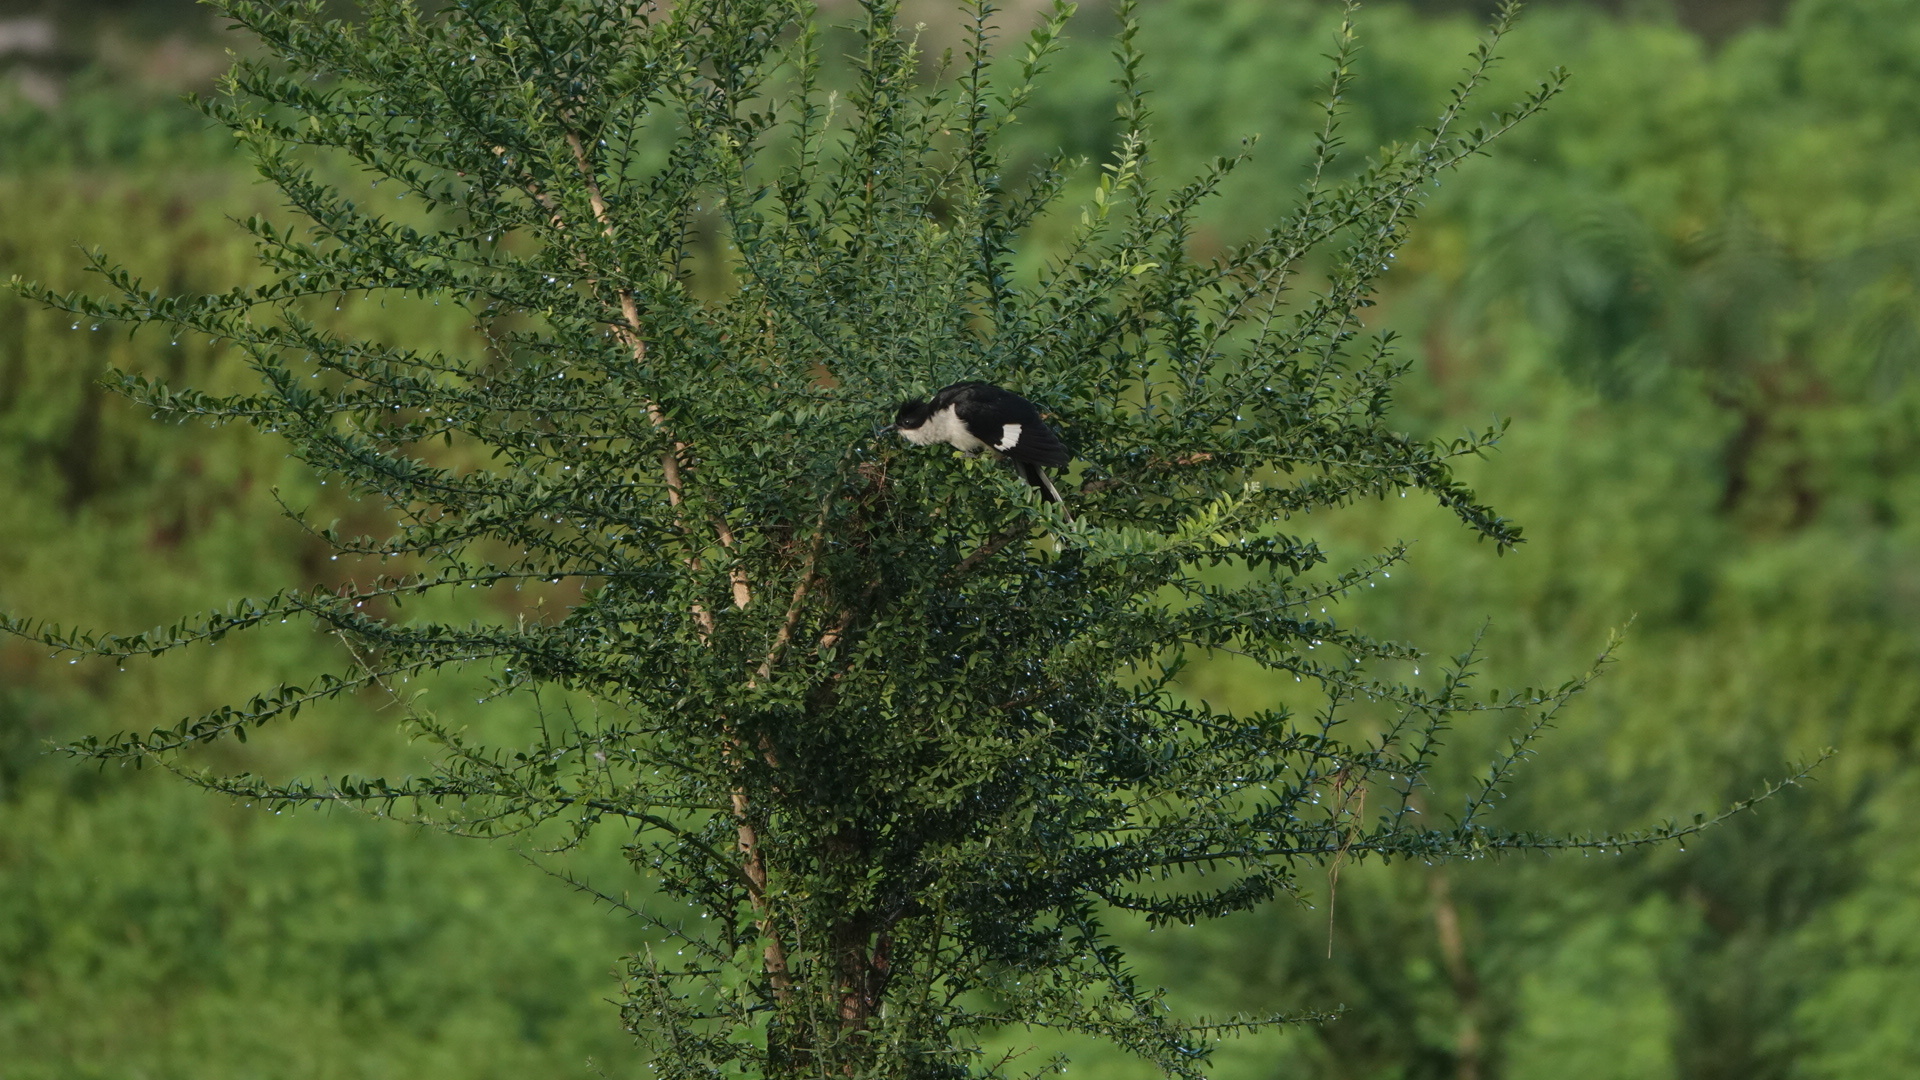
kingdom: Animalia
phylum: Chordata
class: Aves
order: Cuculiformes
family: Cuculidae
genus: Clamator
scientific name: Clamator jacobinus
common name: Jacobin cuckoo
